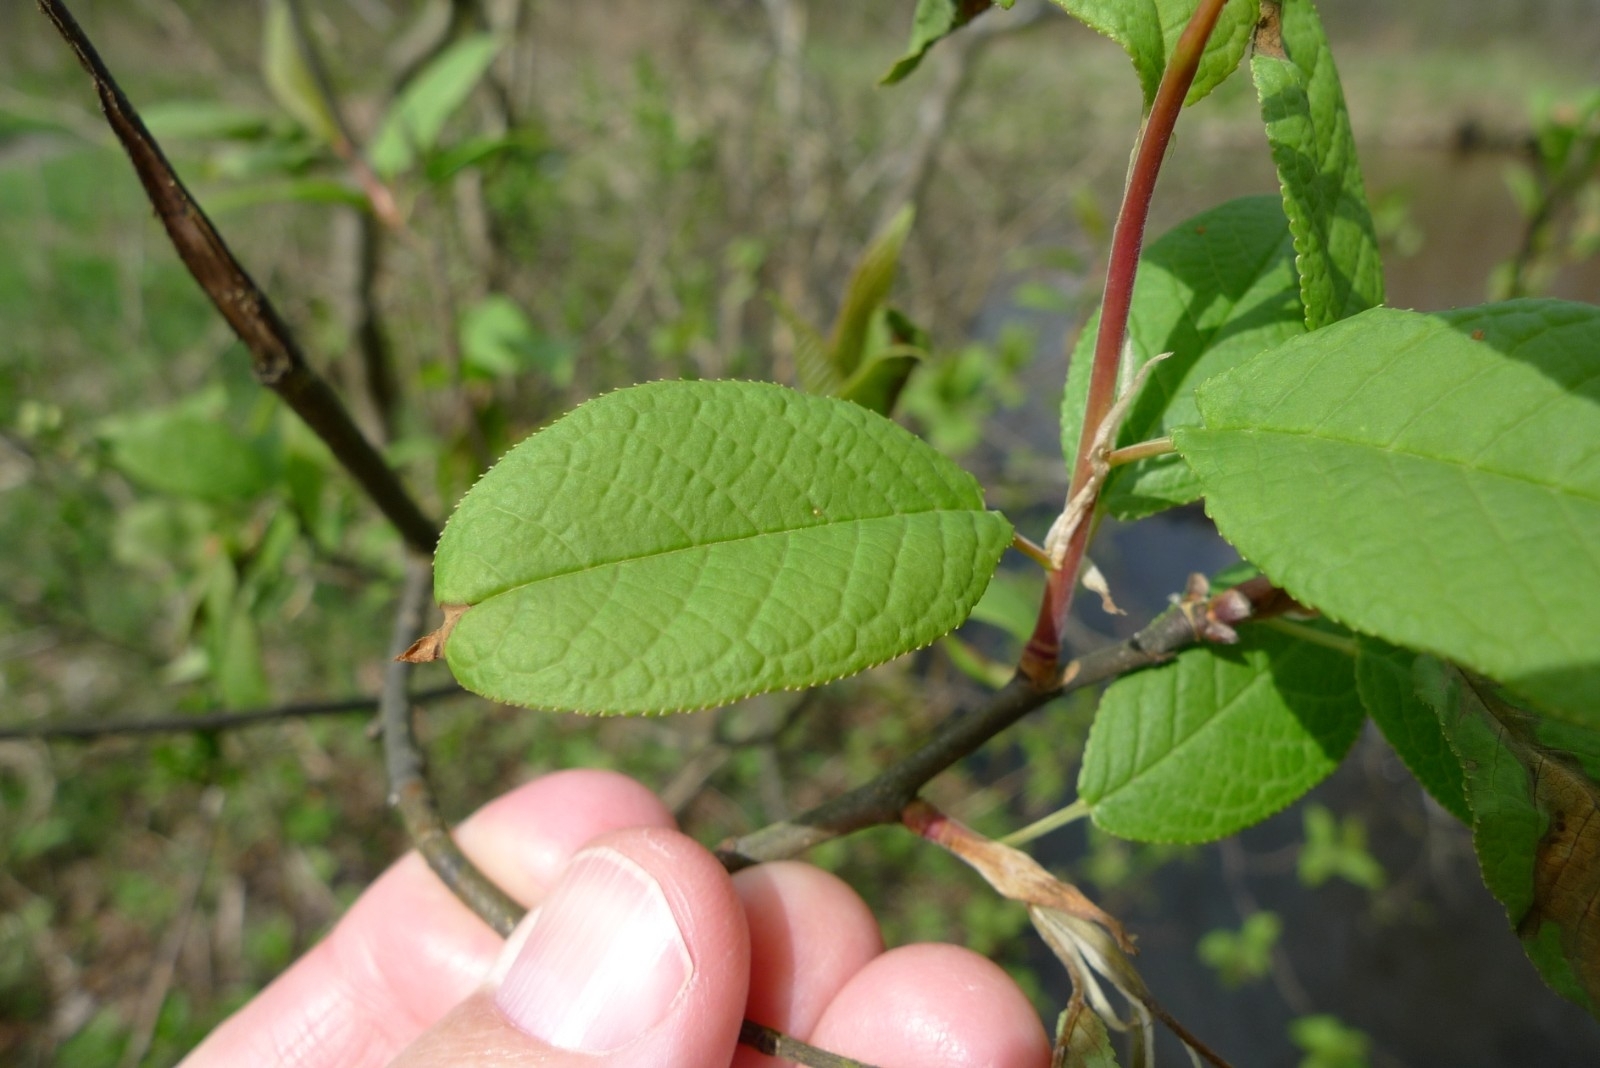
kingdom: Plantae
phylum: Tracheophyta
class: Magnoliopsida
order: Rosales
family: Rosaceae
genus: Prunus
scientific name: Prunus padus
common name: Bird cherry
